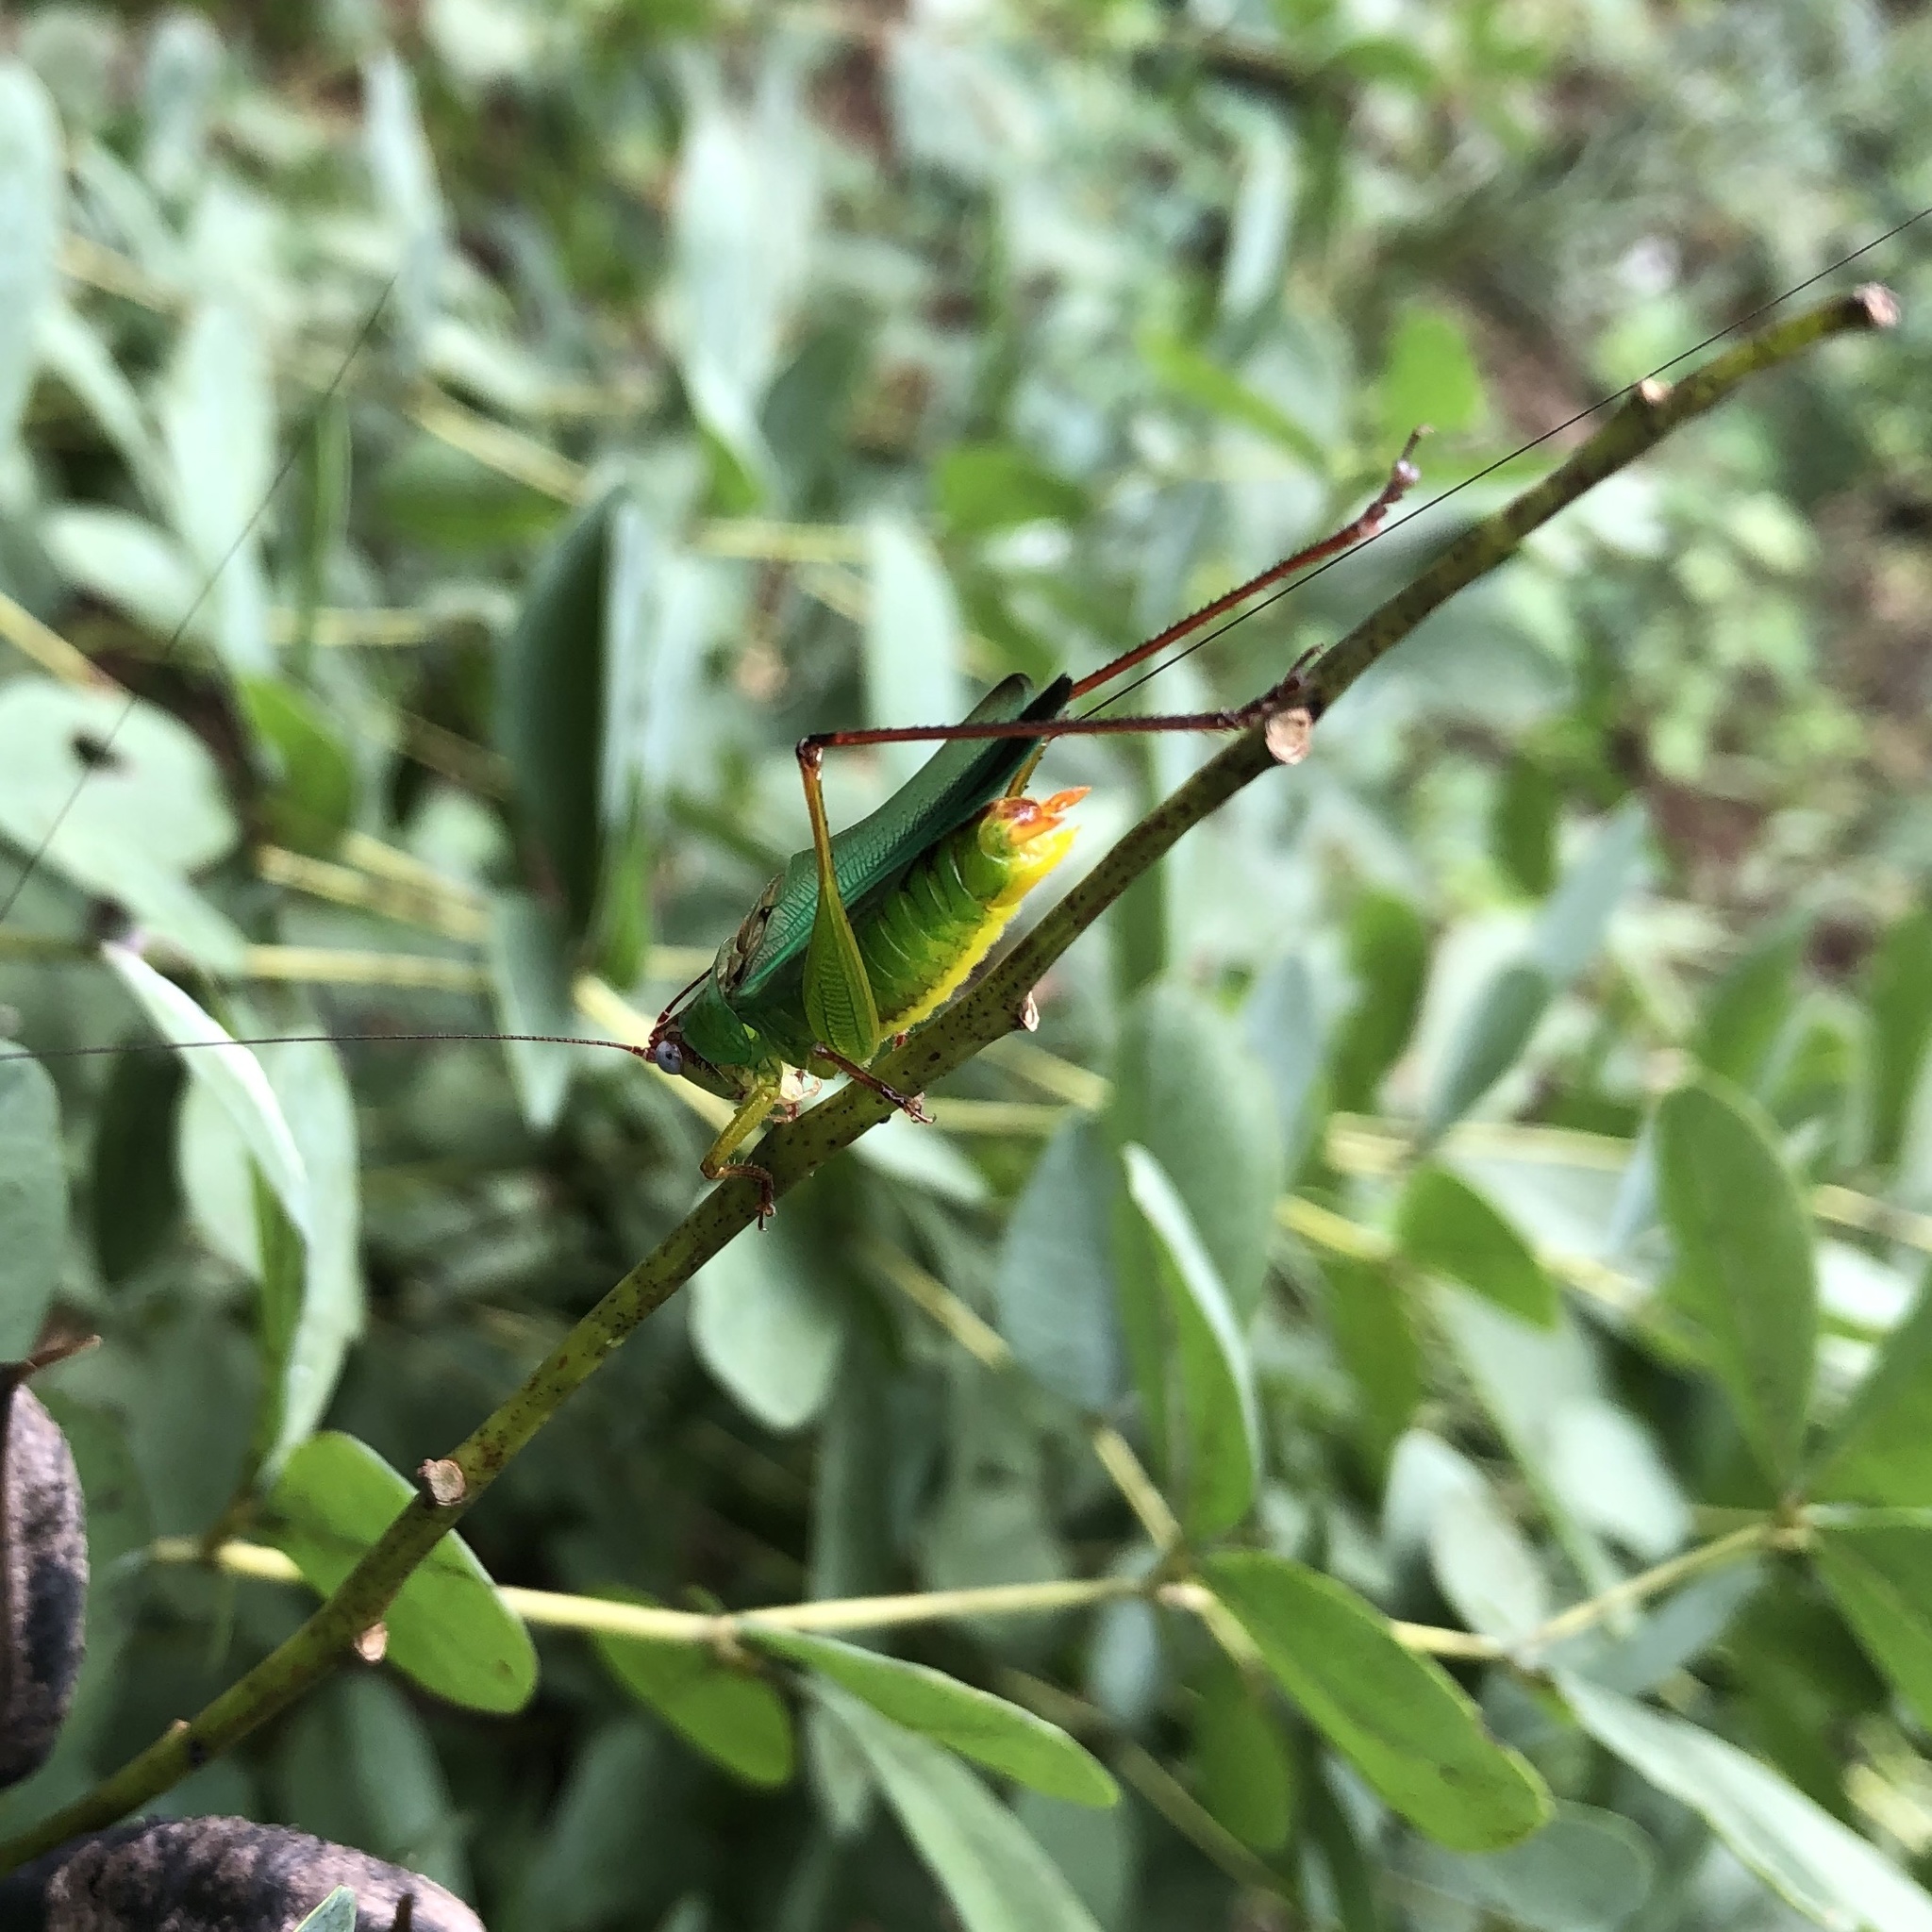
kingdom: Animalia
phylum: Arthropoda
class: Insecta
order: Orthoptera
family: Tettigoniidae
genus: Orchelimum
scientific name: Orchelimum pulchellum
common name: Handsome meadow katydid
